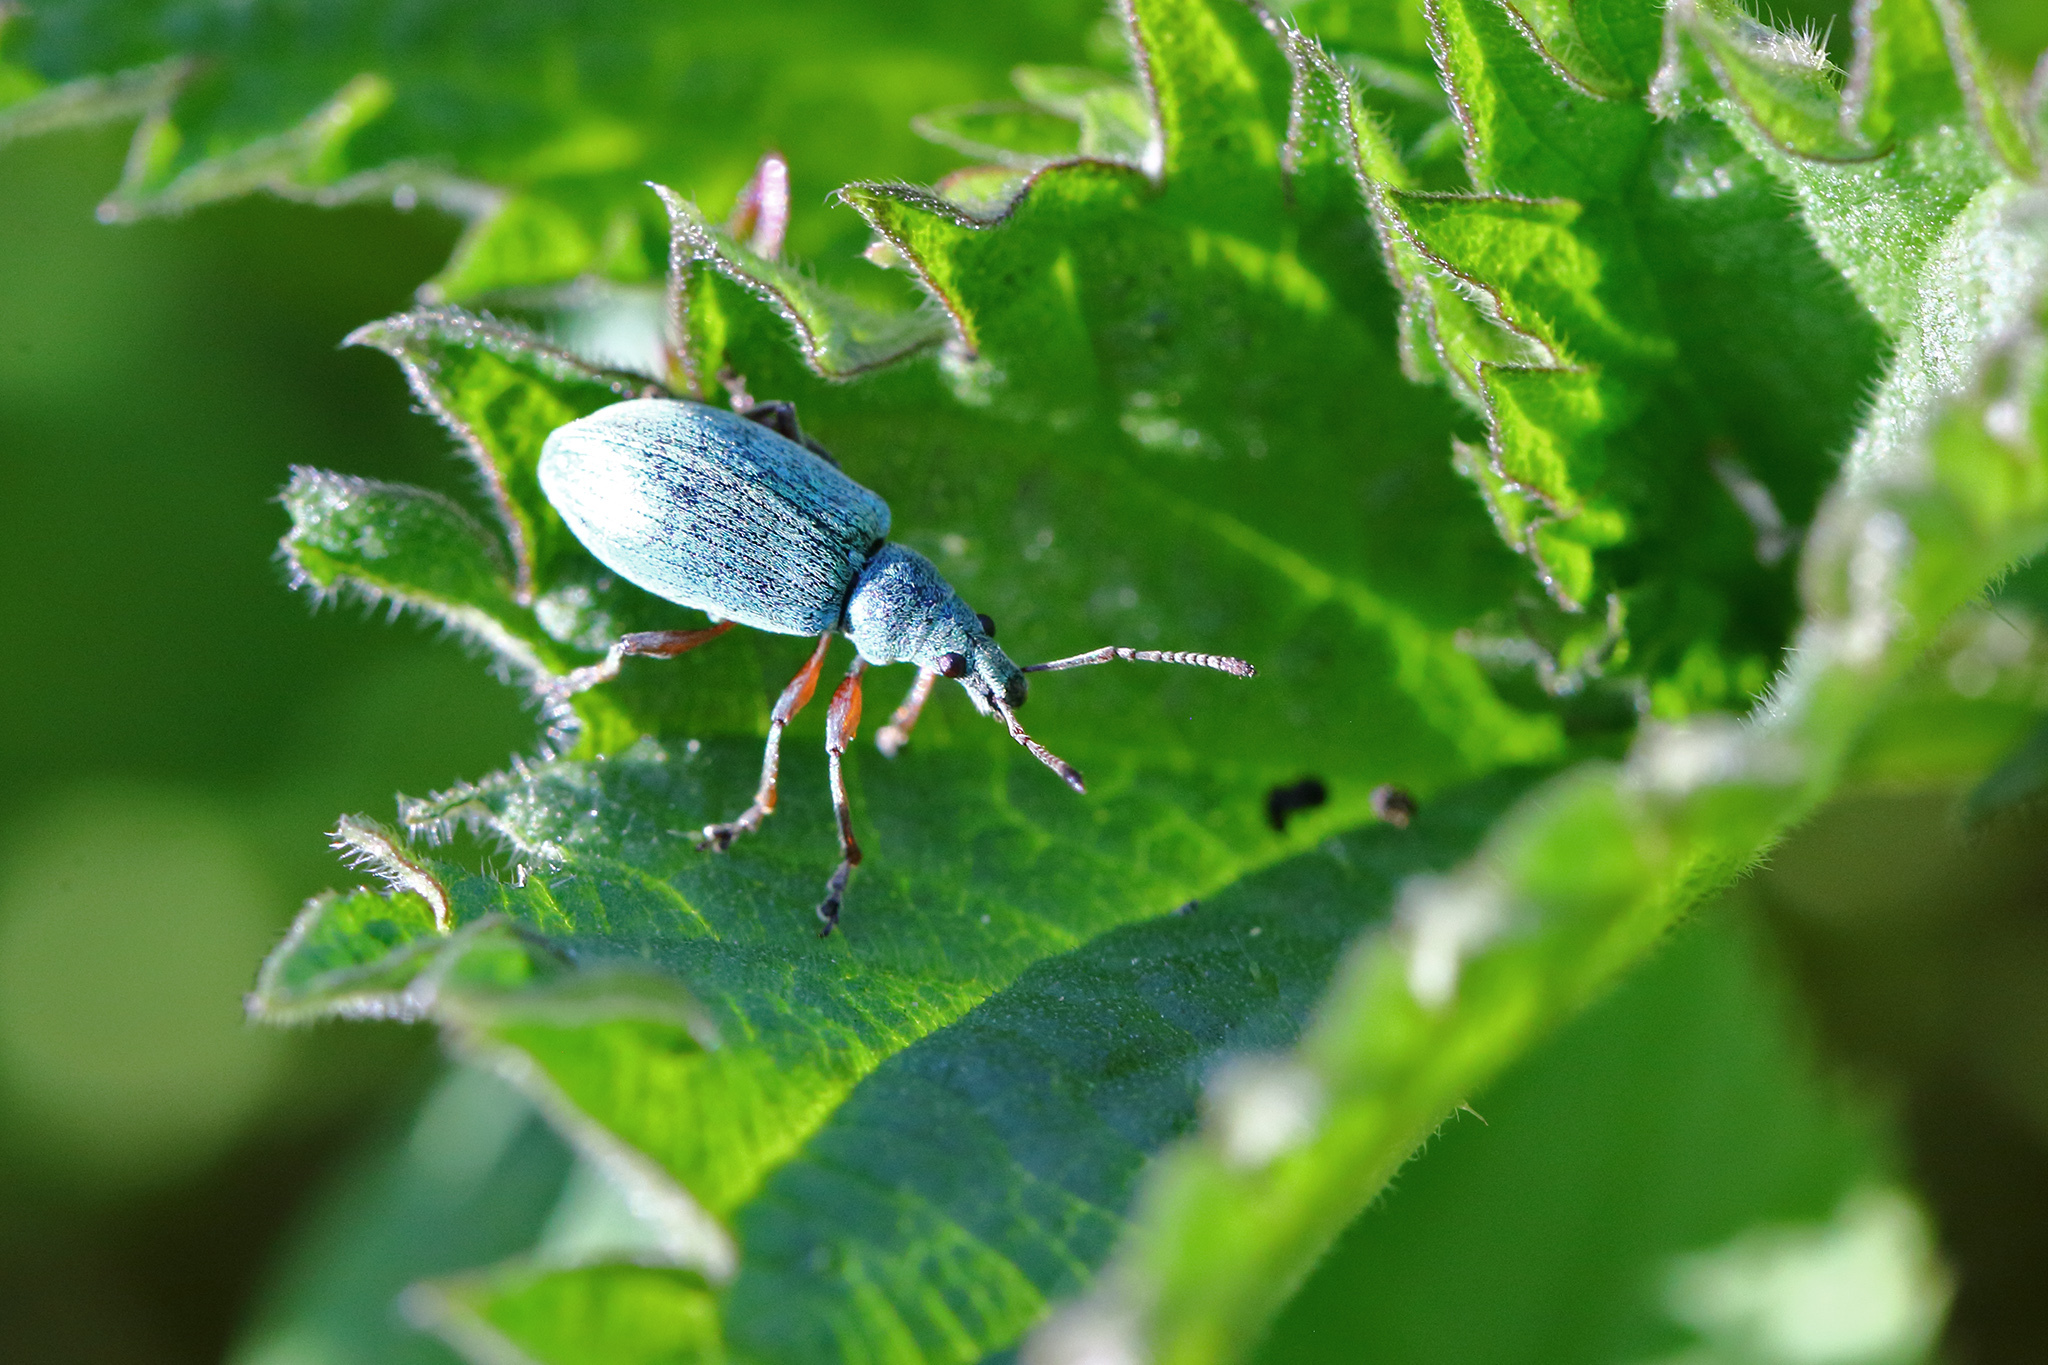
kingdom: Animalia
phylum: Arthropoda
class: Insecta
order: Coleoptera
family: Curculionidae
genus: Phyllobius
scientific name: Phyllobius pomaceus
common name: Green nettle weevil
